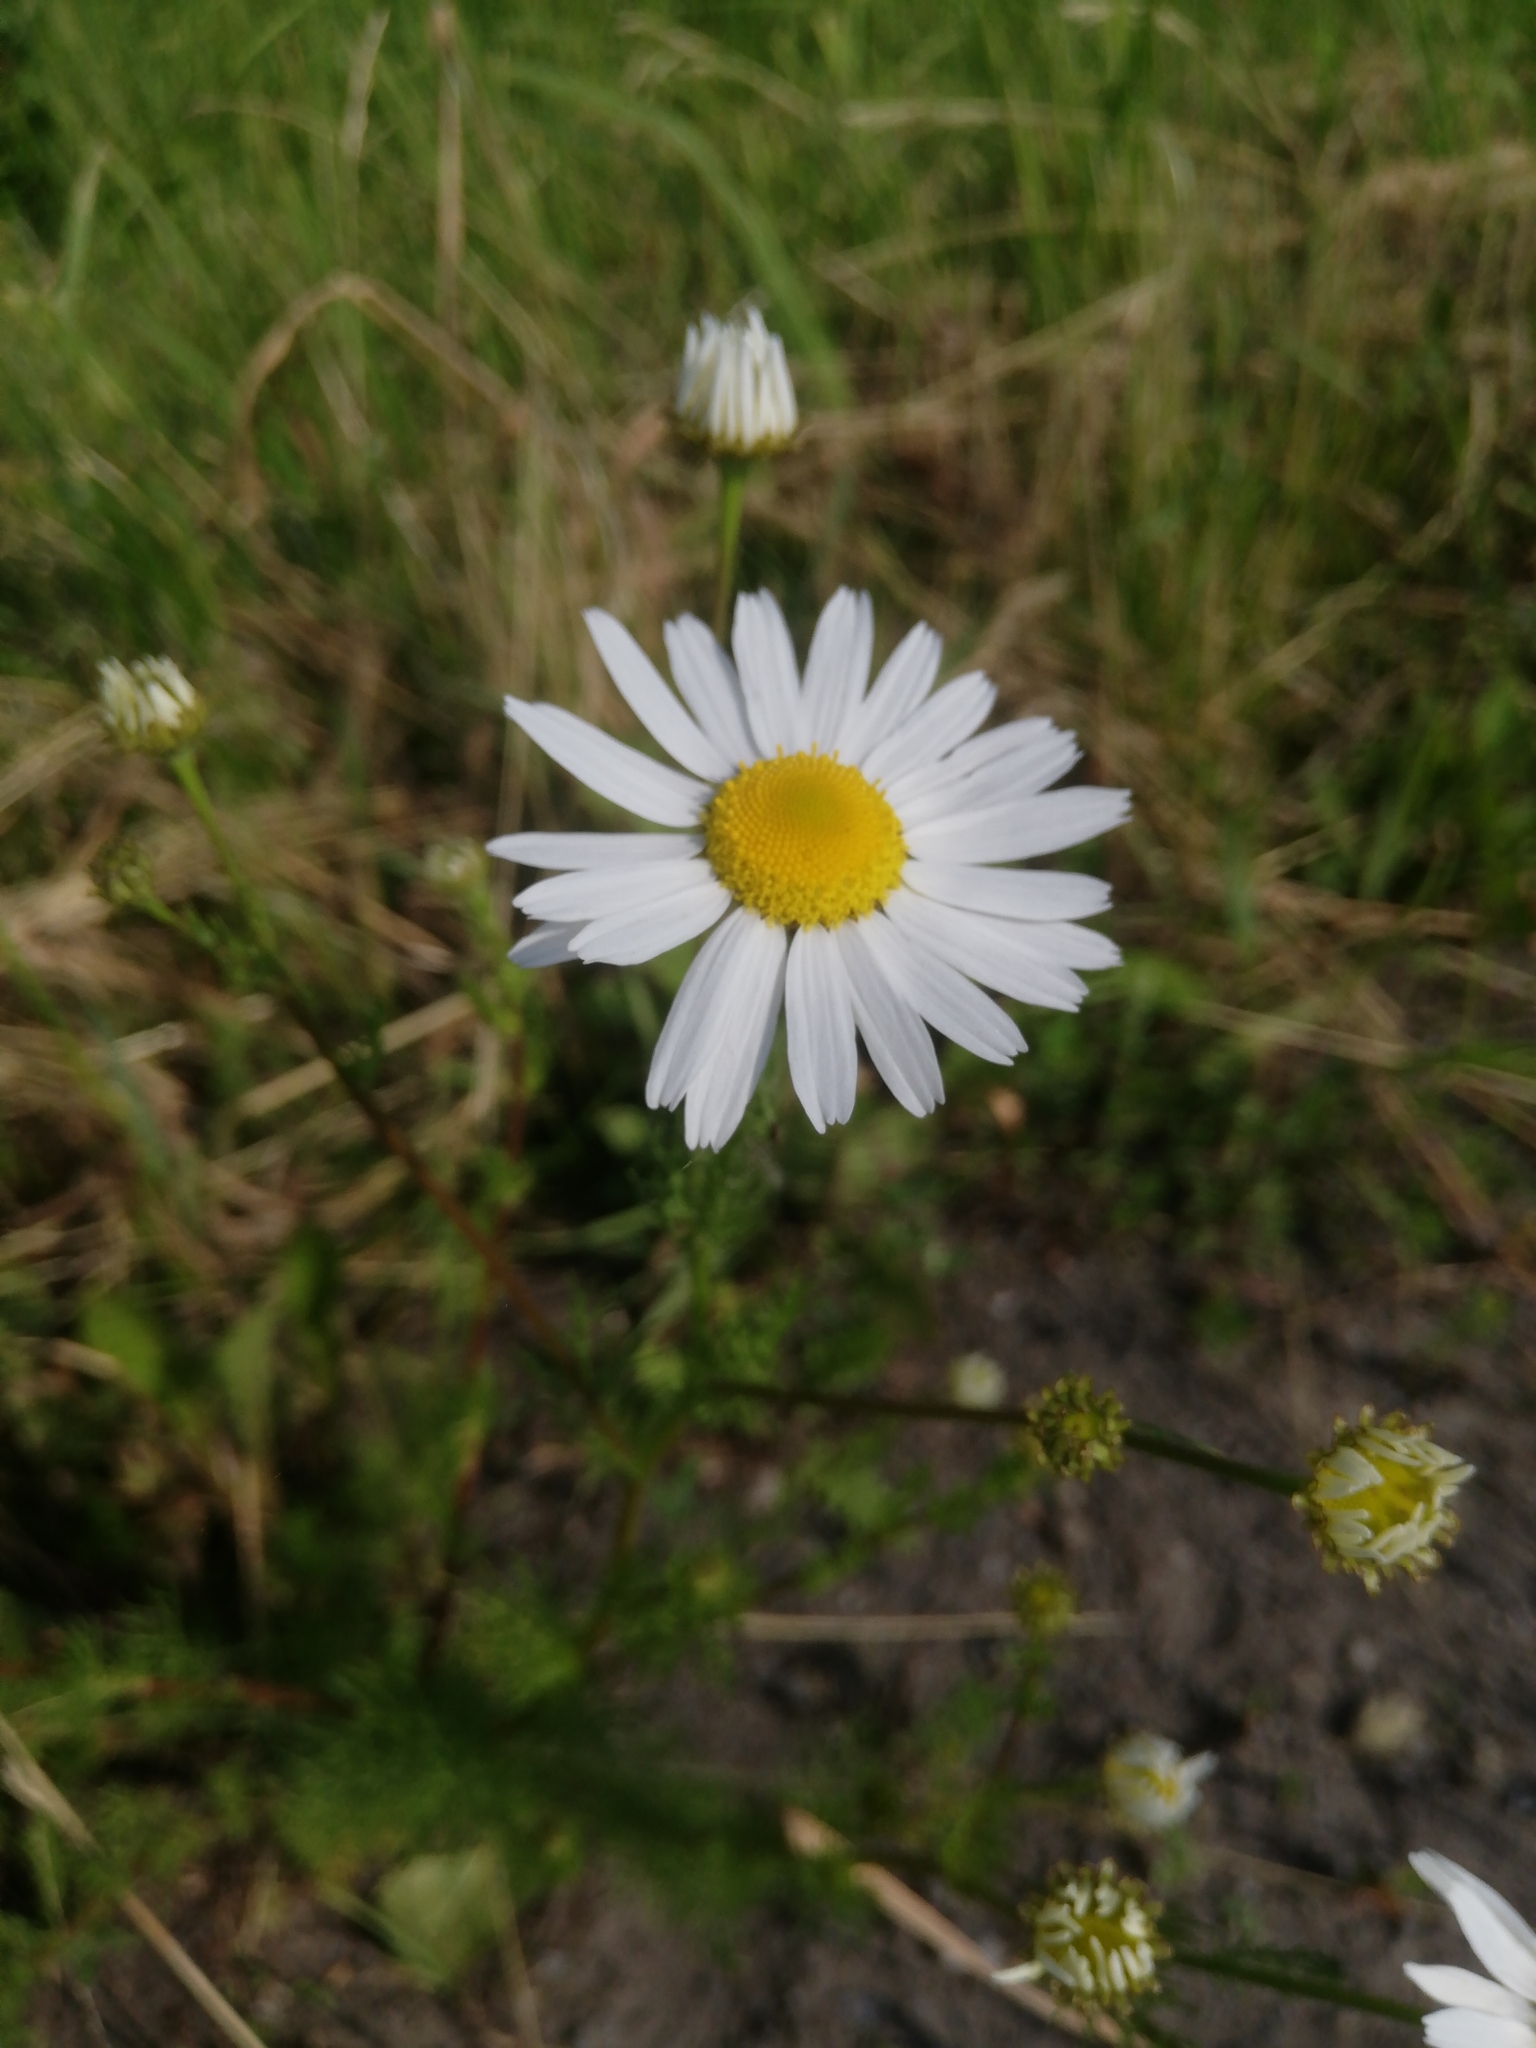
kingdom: Plantae
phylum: Tracheophyta
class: Magnoliopsida
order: Asterales
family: Asteraceae
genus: Tripleurospermum
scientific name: Tripleurospermum inodorum
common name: Scentless mayweed
